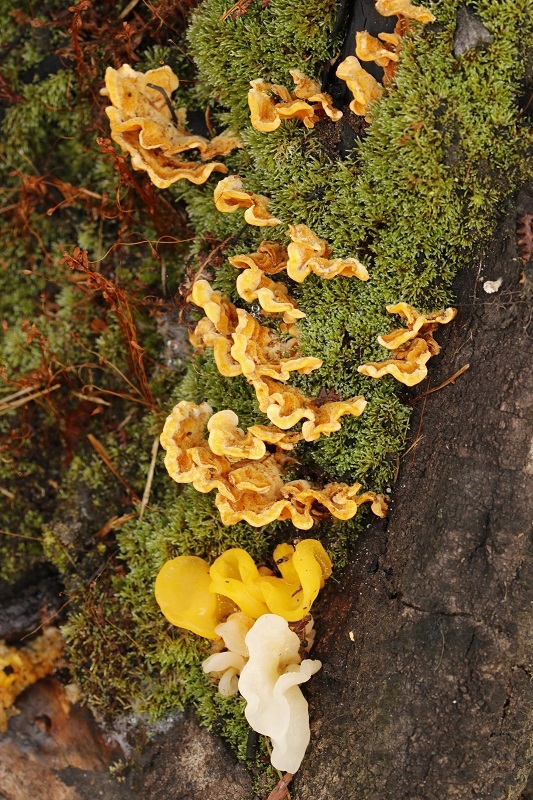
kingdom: Fungi
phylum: Basidiomycota
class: Agaricomycetes
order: Russulales
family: Stereaceae
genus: Stereum
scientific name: Stereum hirsutum
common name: Hairy curtain crust
